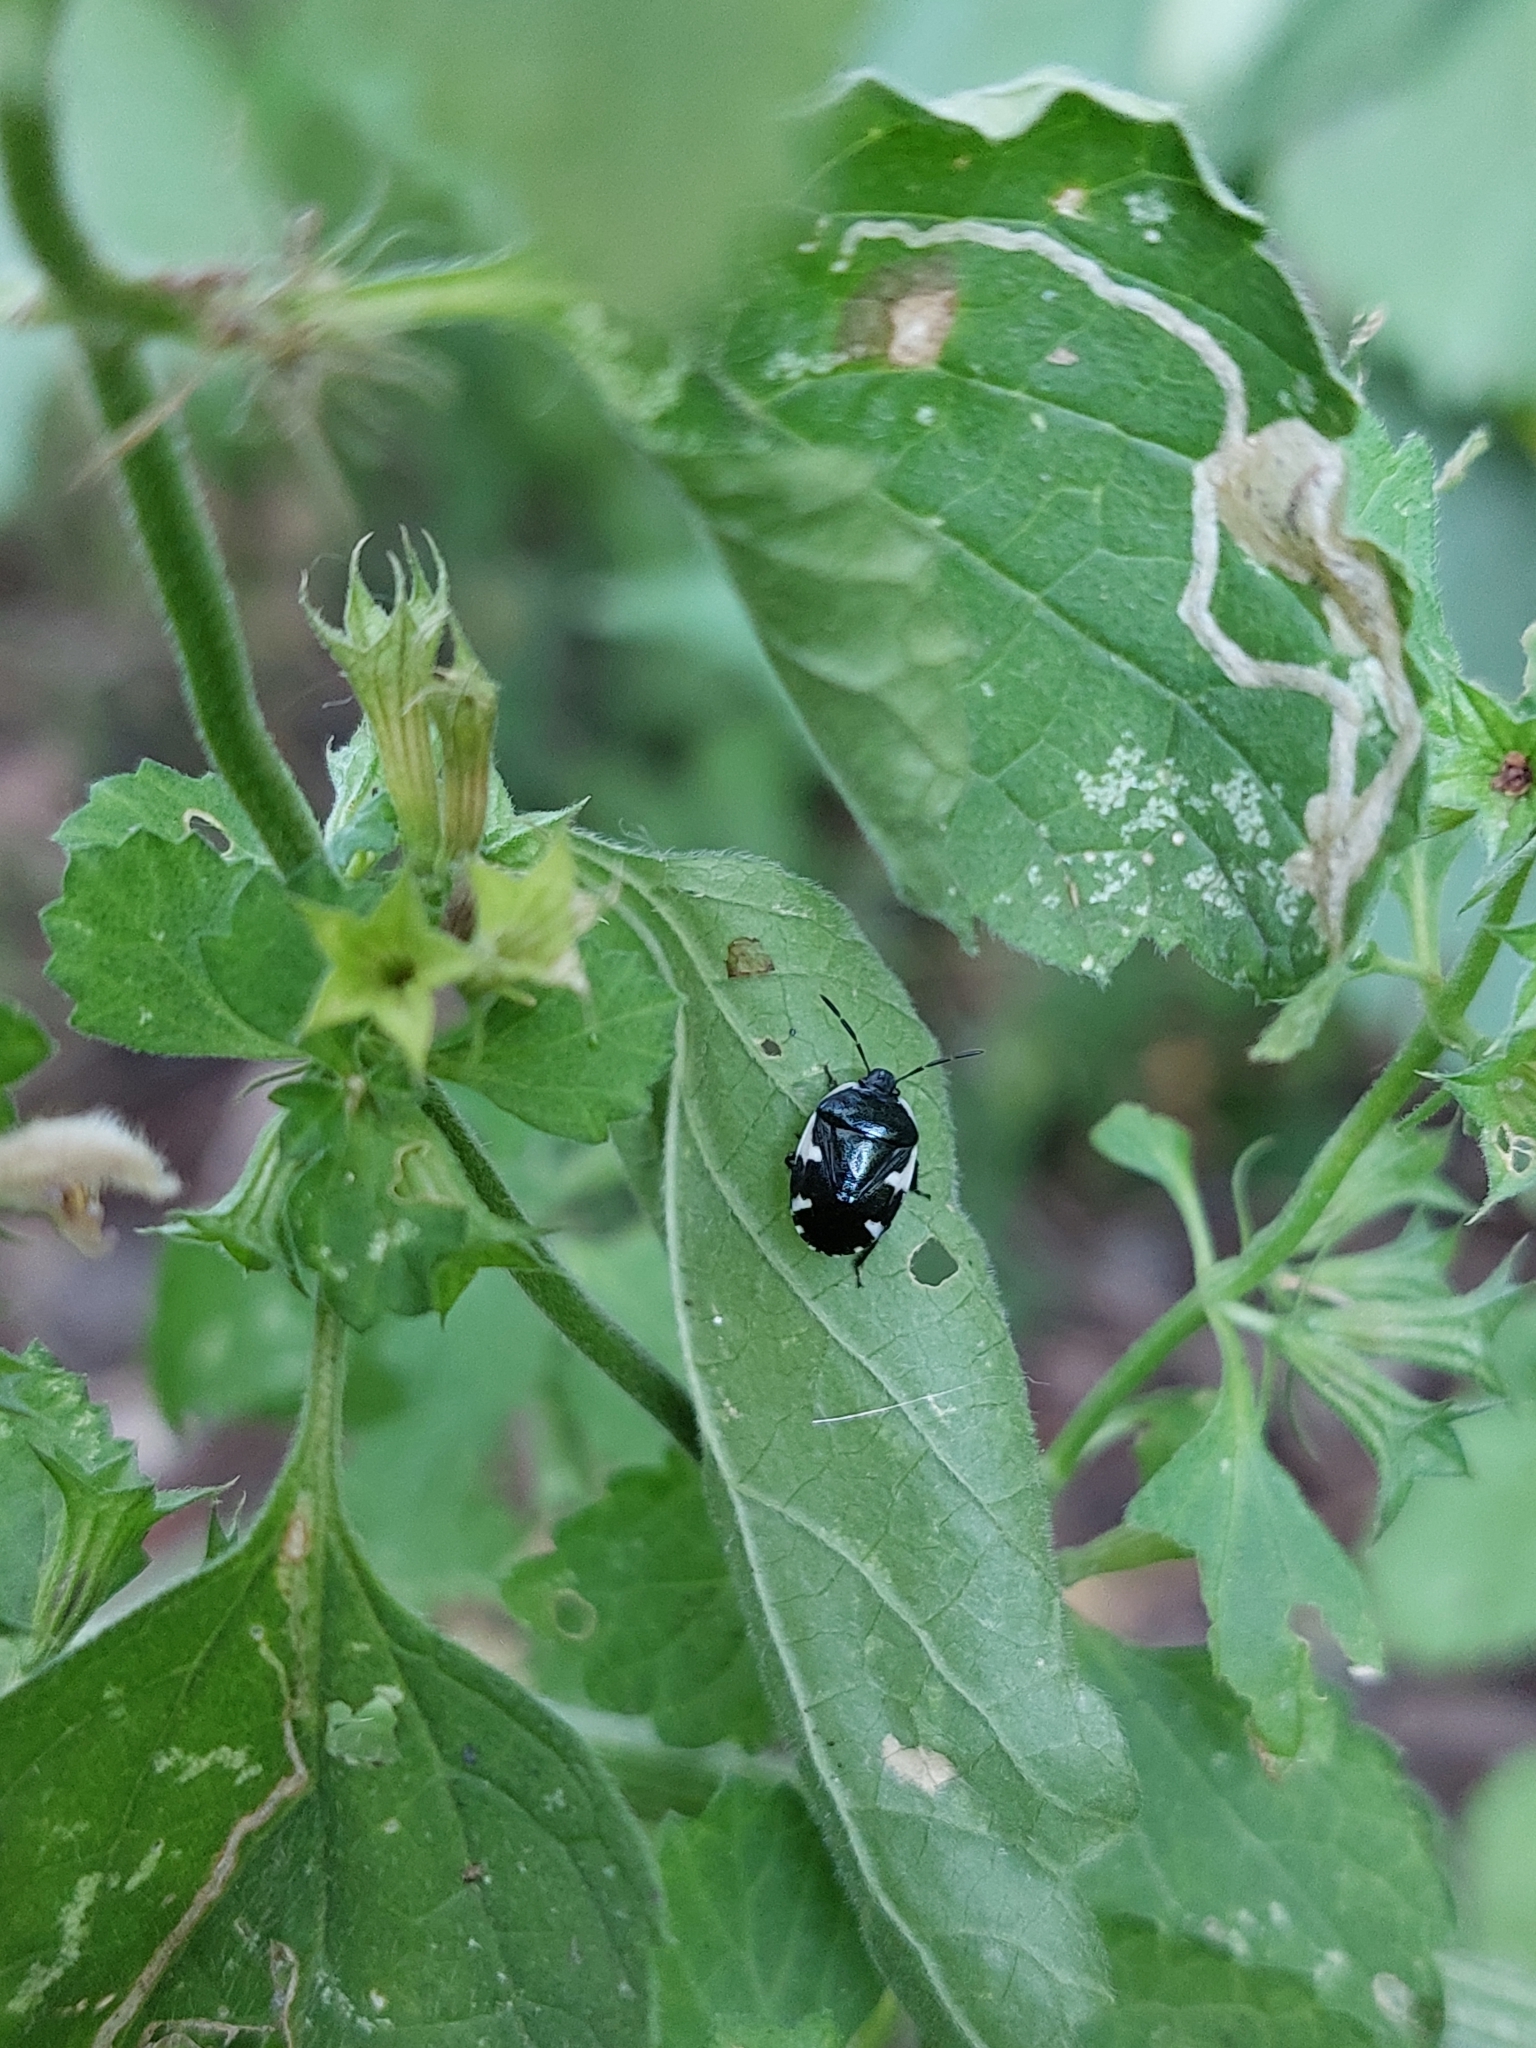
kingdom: Animalia
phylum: Arthropoda
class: Insecta
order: Hemiptera
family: Cydnidae
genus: Tritomegas
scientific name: Tritomegas sexmaculatus
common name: Rambur's pied shieldbug
